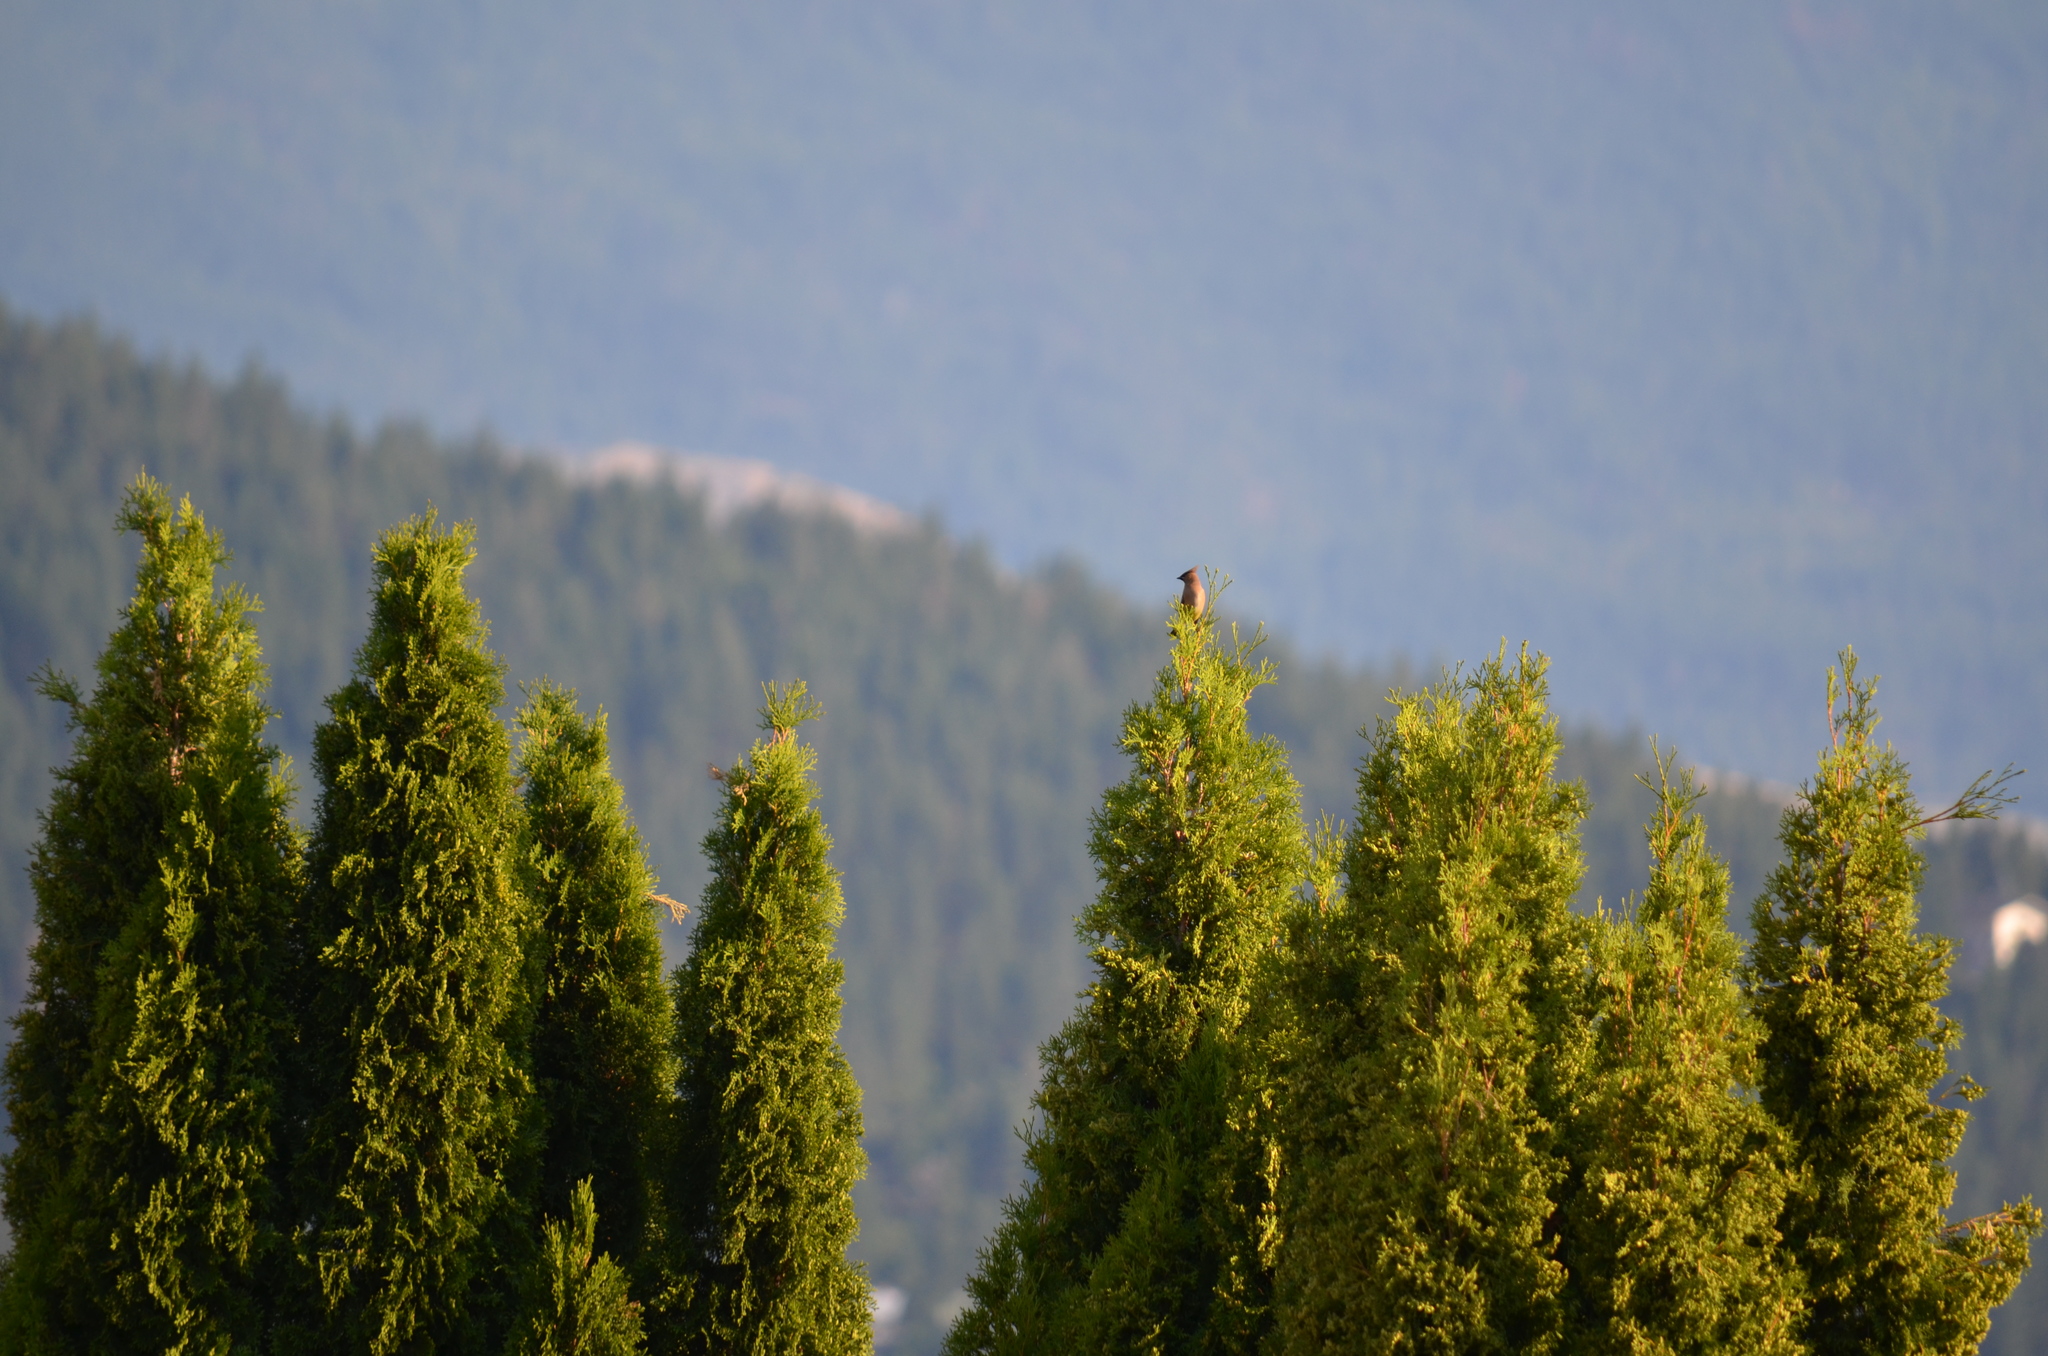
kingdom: Animalia
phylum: Chordata
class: Aves
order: Passeriformes
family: Bombycillidae
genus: Bombycilla
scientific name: Bombycilla cedrorum
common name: Cedar waxwing
